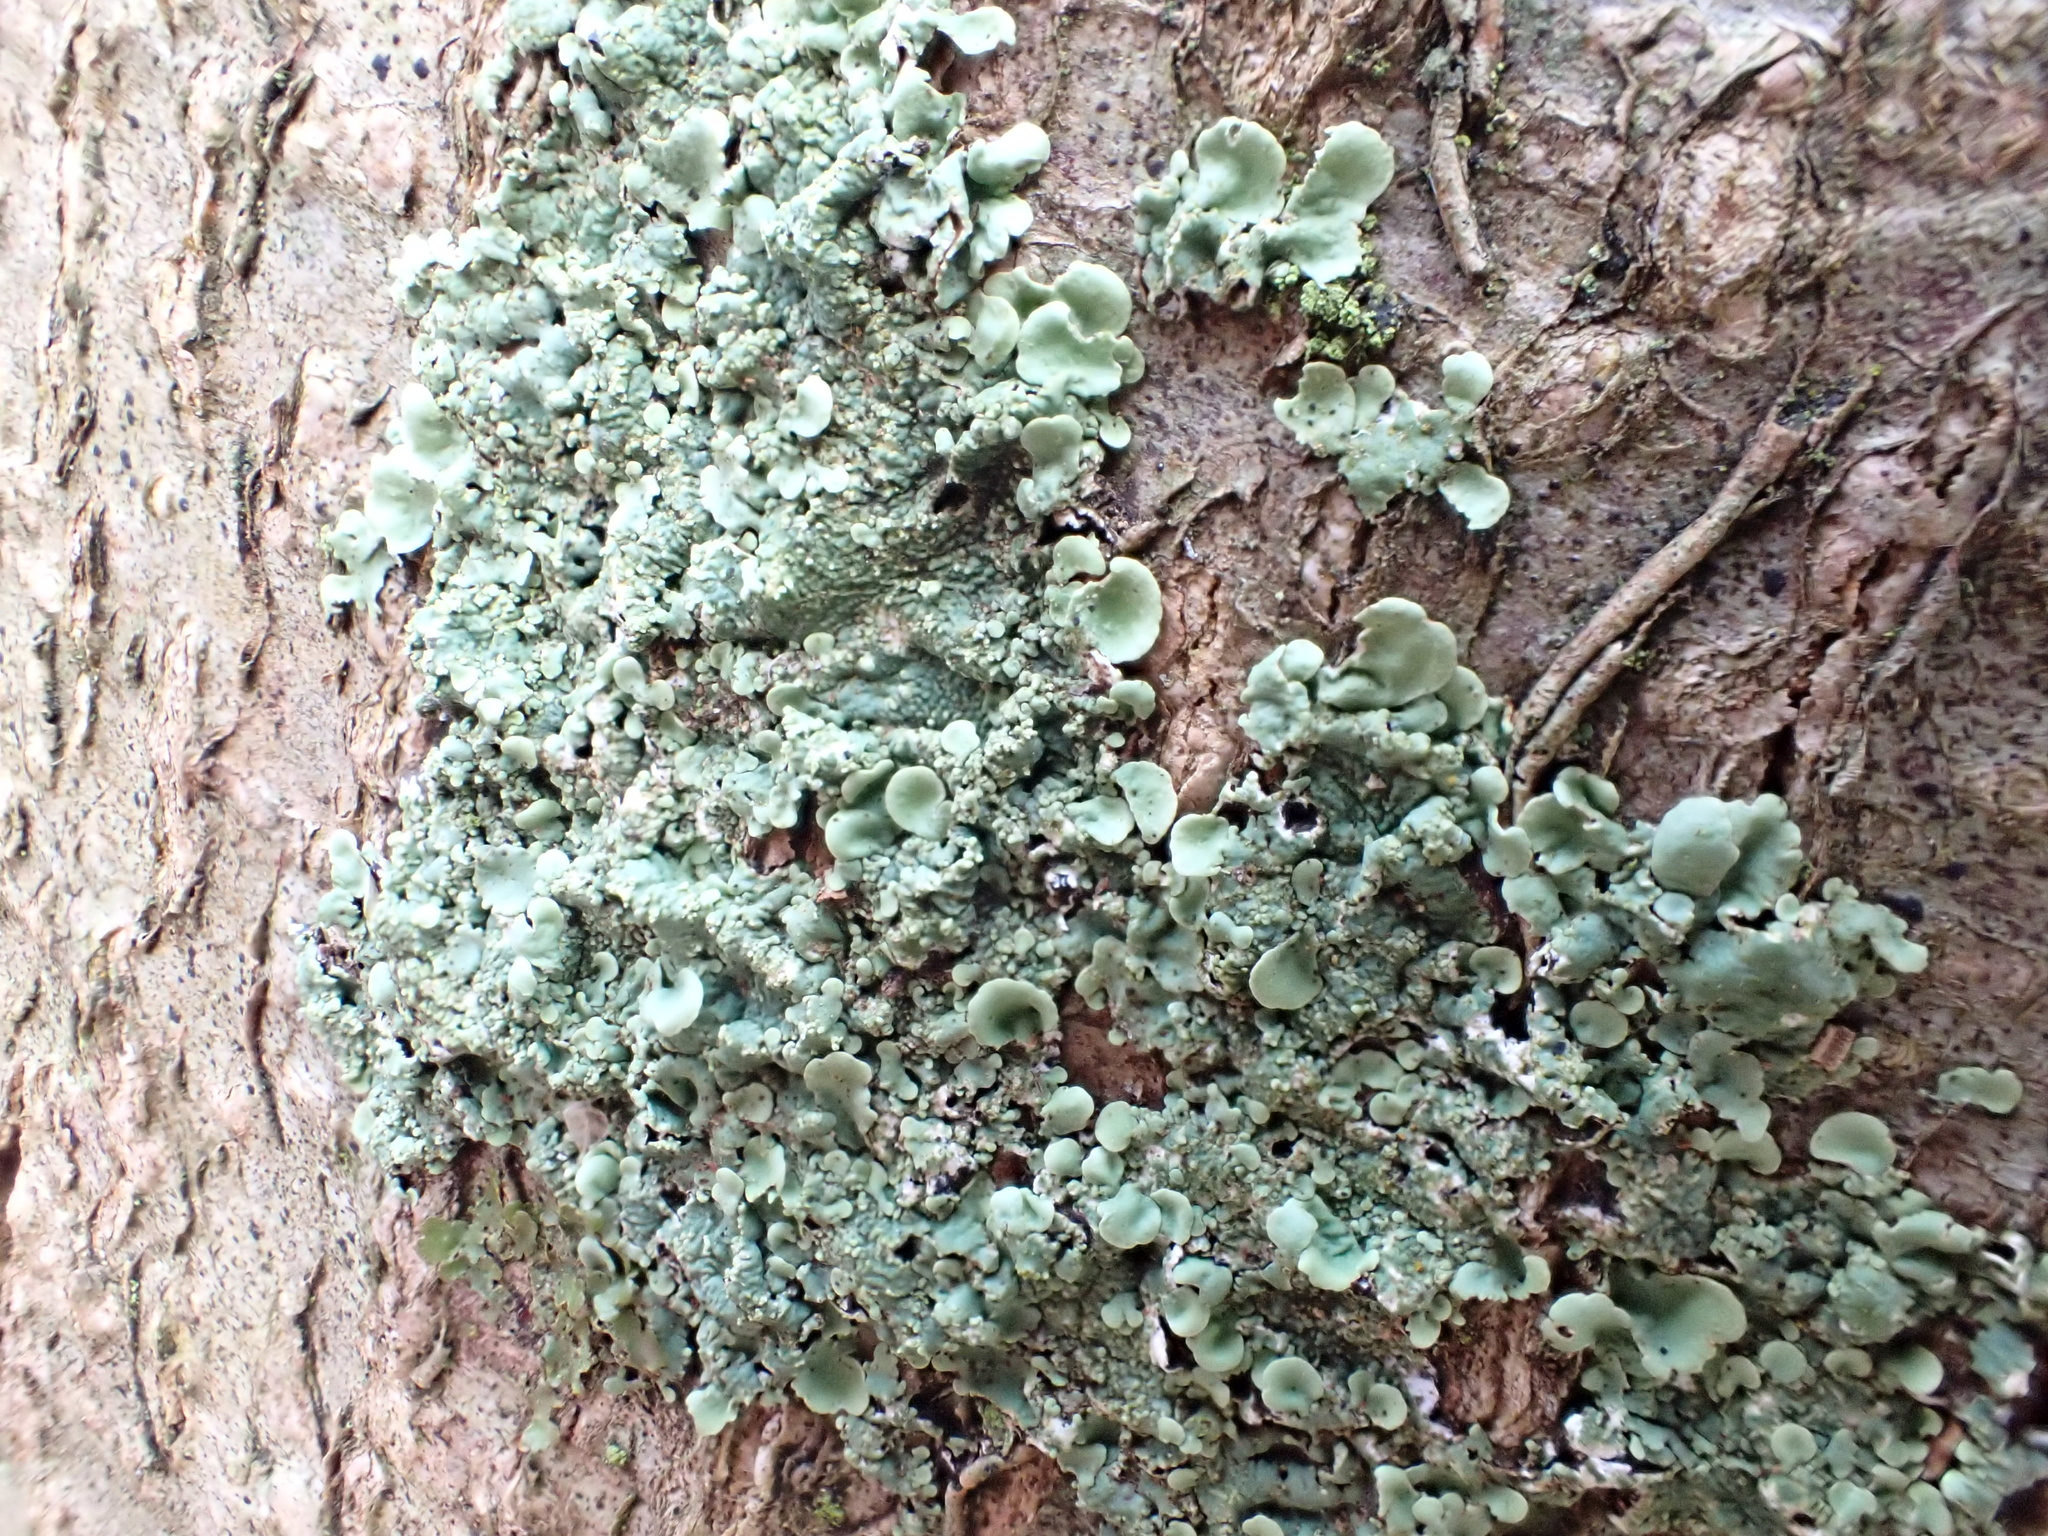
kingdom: Fungi
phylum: Ascomycota
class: Lecanoromycetes
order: Lecanorales
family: Parmeliaceae
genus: Flavoparmelia
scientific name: Flavoparmelia soredians
